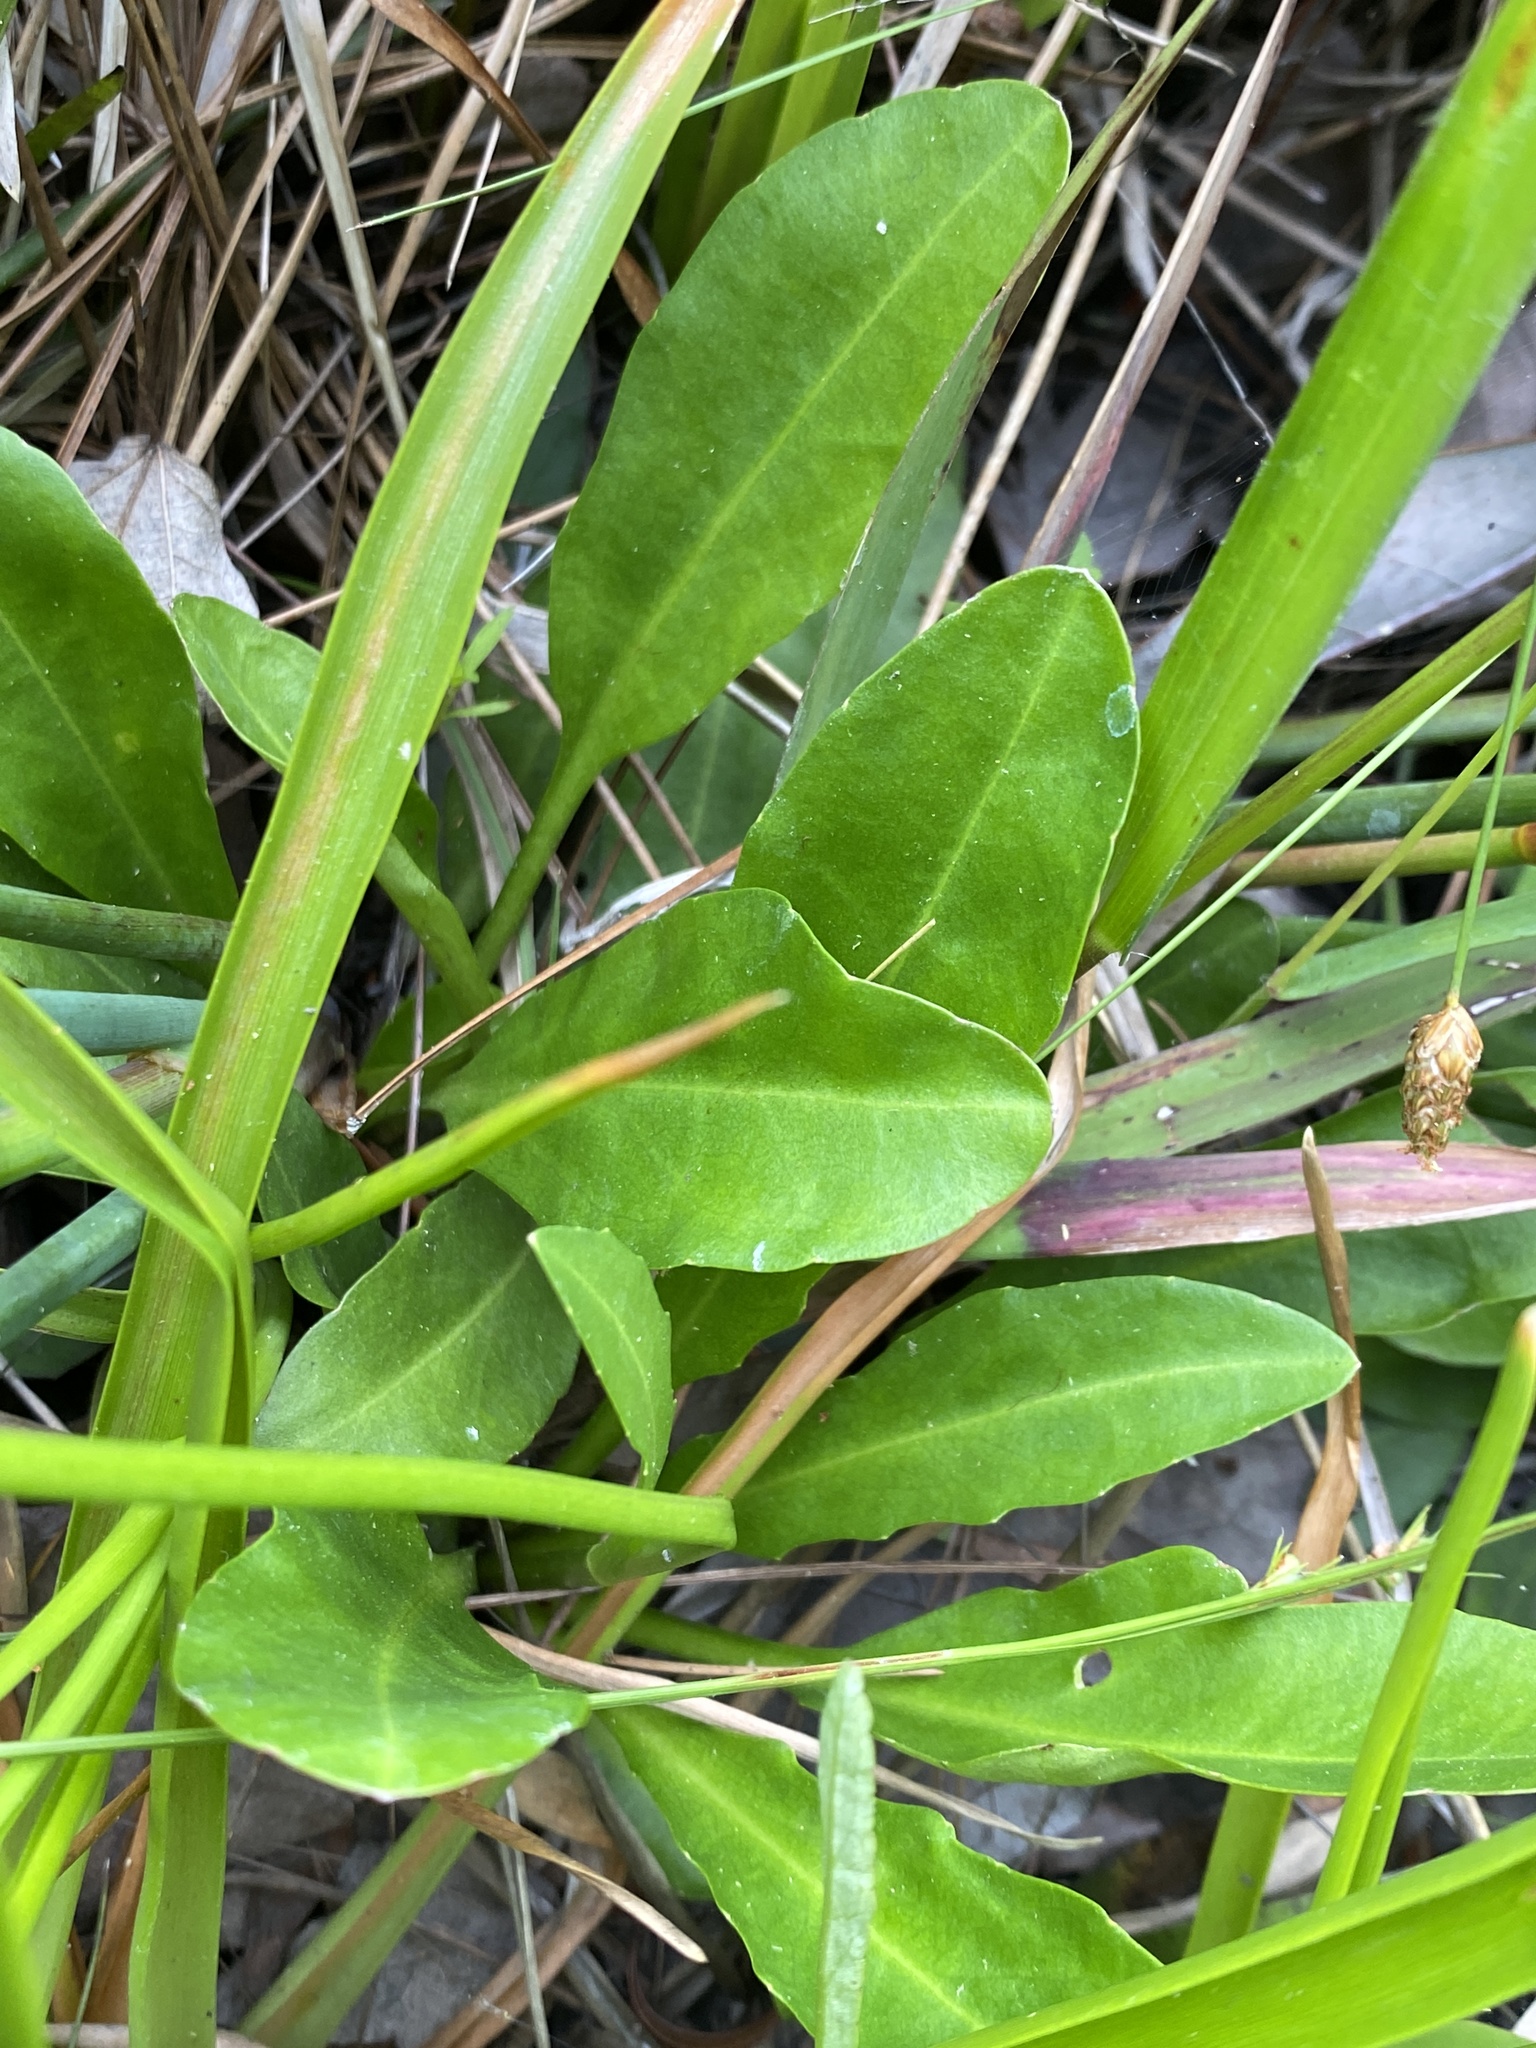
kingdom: Plantae
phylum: Tracheophyta
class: Magnoliopsida
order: Asterales
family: Asteraceae
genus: Erigeron
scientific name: Erigeron vernus
